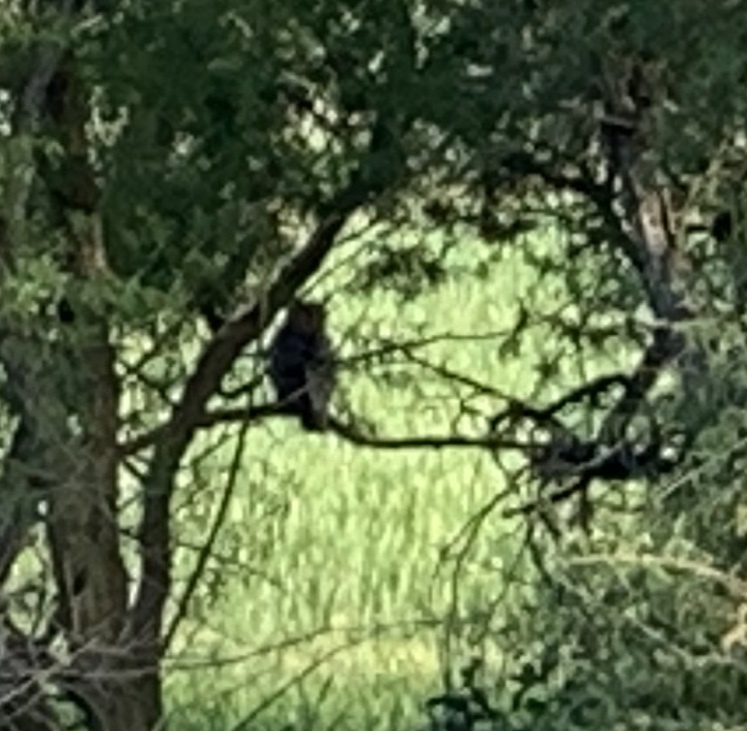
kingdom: Animalia
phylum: Chordata
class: Aves
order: Strigiformes
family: Strigidae
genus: Bubo
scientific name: Bubo virginianus
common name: Great horned owl
